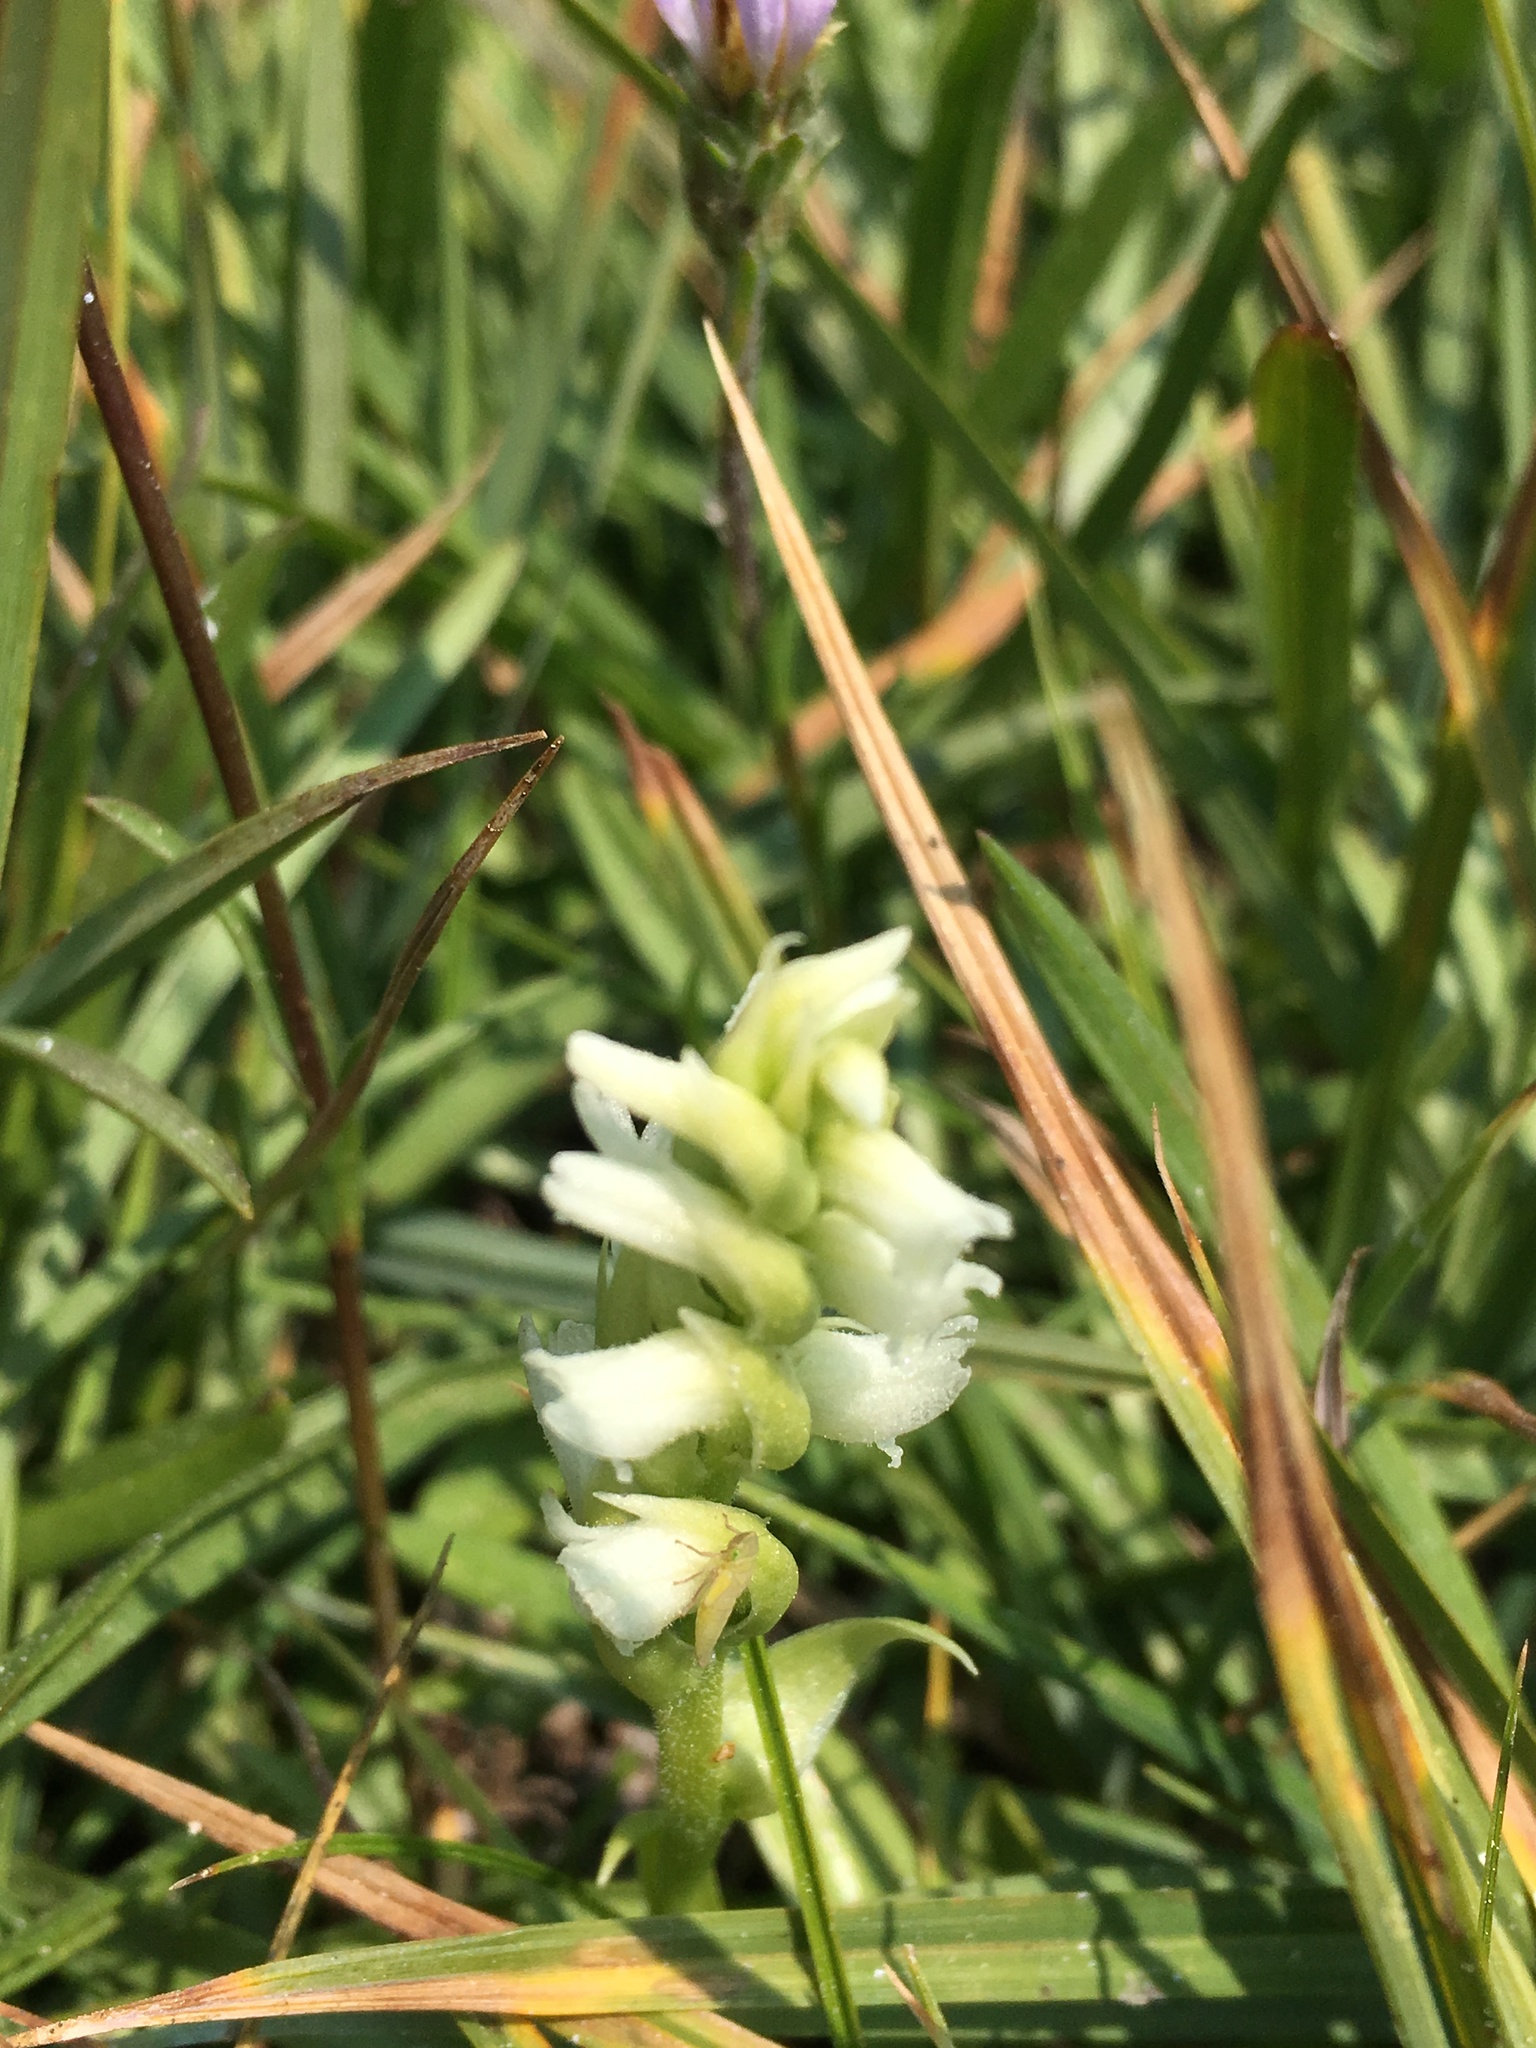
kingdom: Plantae
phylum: Tracheophyta
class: Liliopsida
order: Asparagales
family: Orchidaceae
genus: Spiranthes
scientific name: Spiranthes romanzoffiana
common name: Irish lady's-tresses
